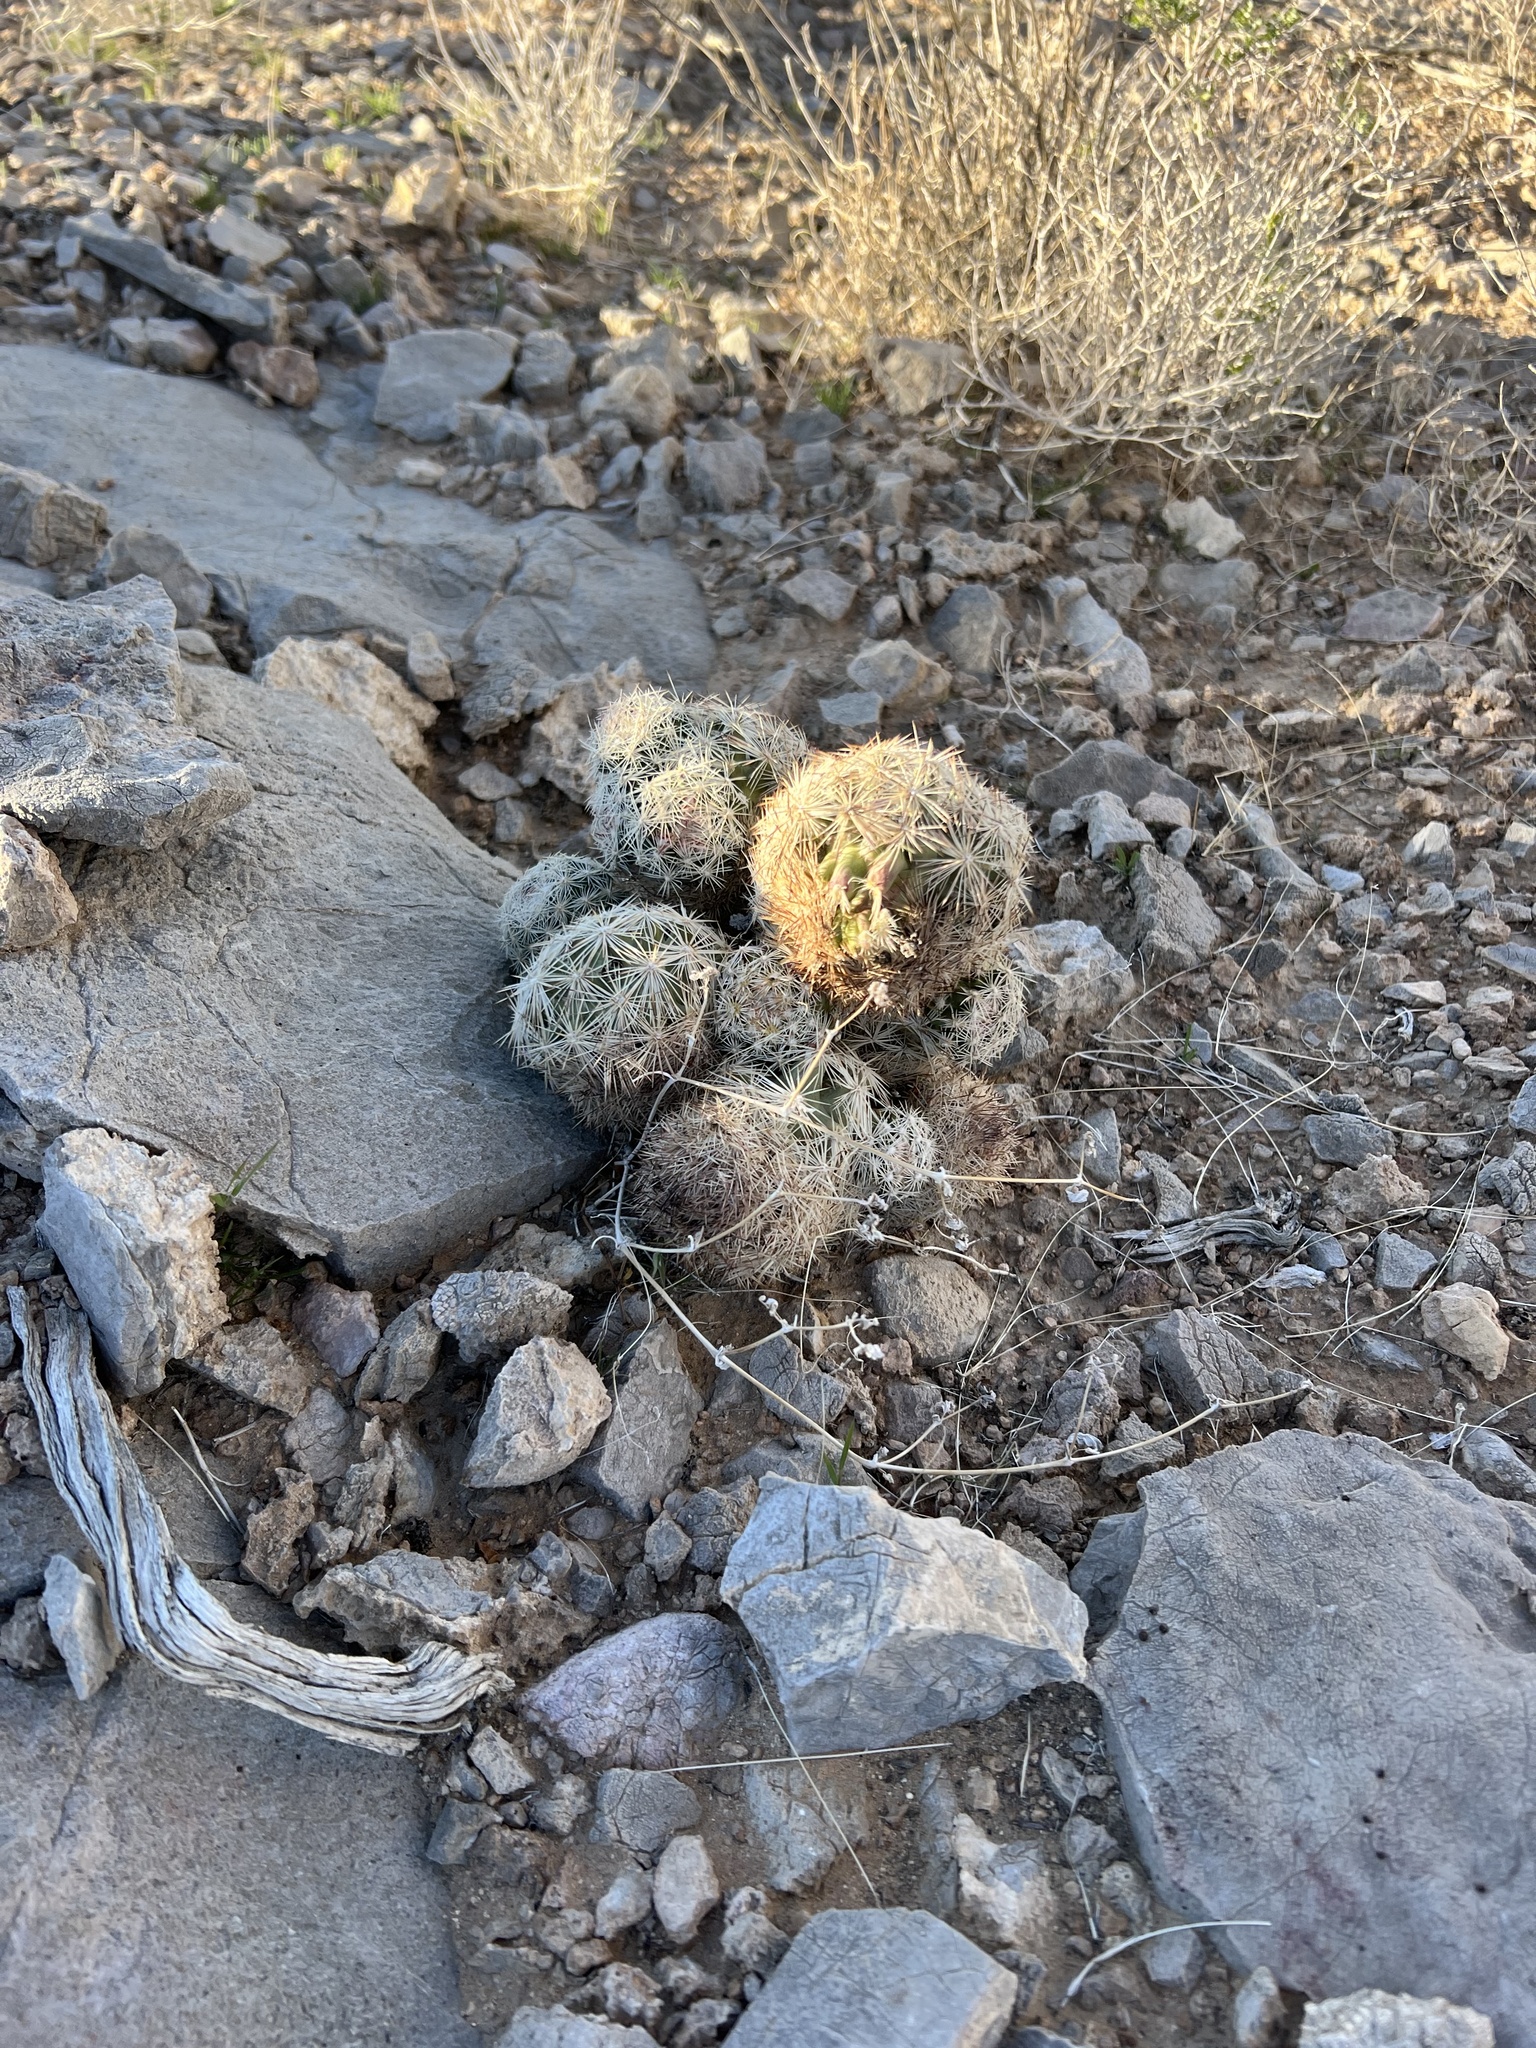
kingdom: Plantae
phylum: Tracheophyta
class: Magnoliopsida
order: Caryophyllales
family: Cactaceae
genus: Pelecyphora
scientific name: Pelecyphora dasyacantha
